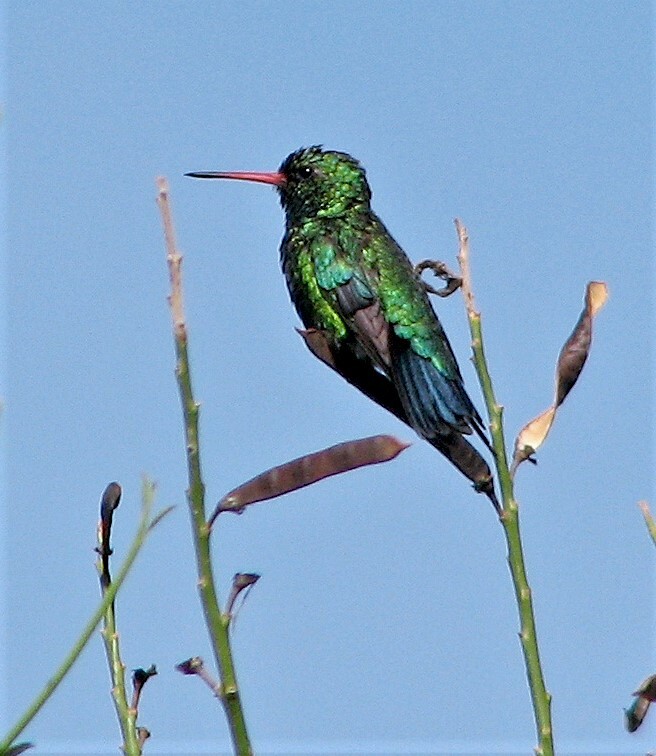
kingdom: Animalia
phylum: Chordata
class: Aves
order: Apodiformes
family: Trochilidae
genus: Chlorostilbon
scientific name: Chlorostilbon lucidus
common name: Glittering-bellied emerald
